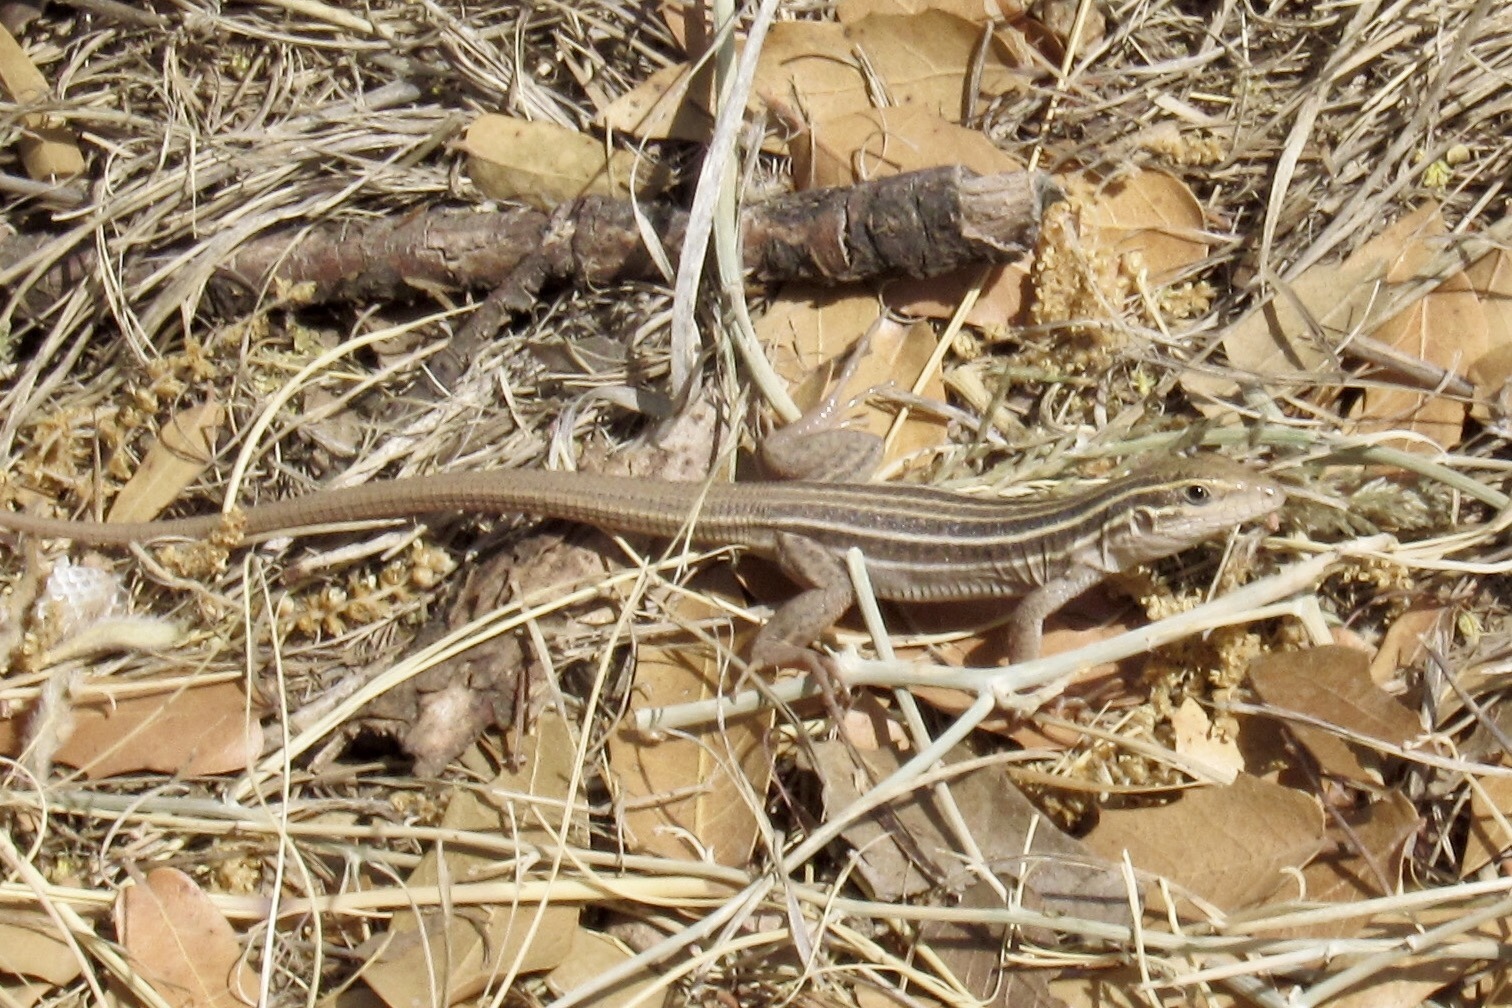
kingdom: Animalia
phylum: Chordata
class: Squamata
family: Teiidae
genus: Aspidoscelis
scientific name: Aspidoscelis stictogrammus
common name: Giant spotted whiptail
